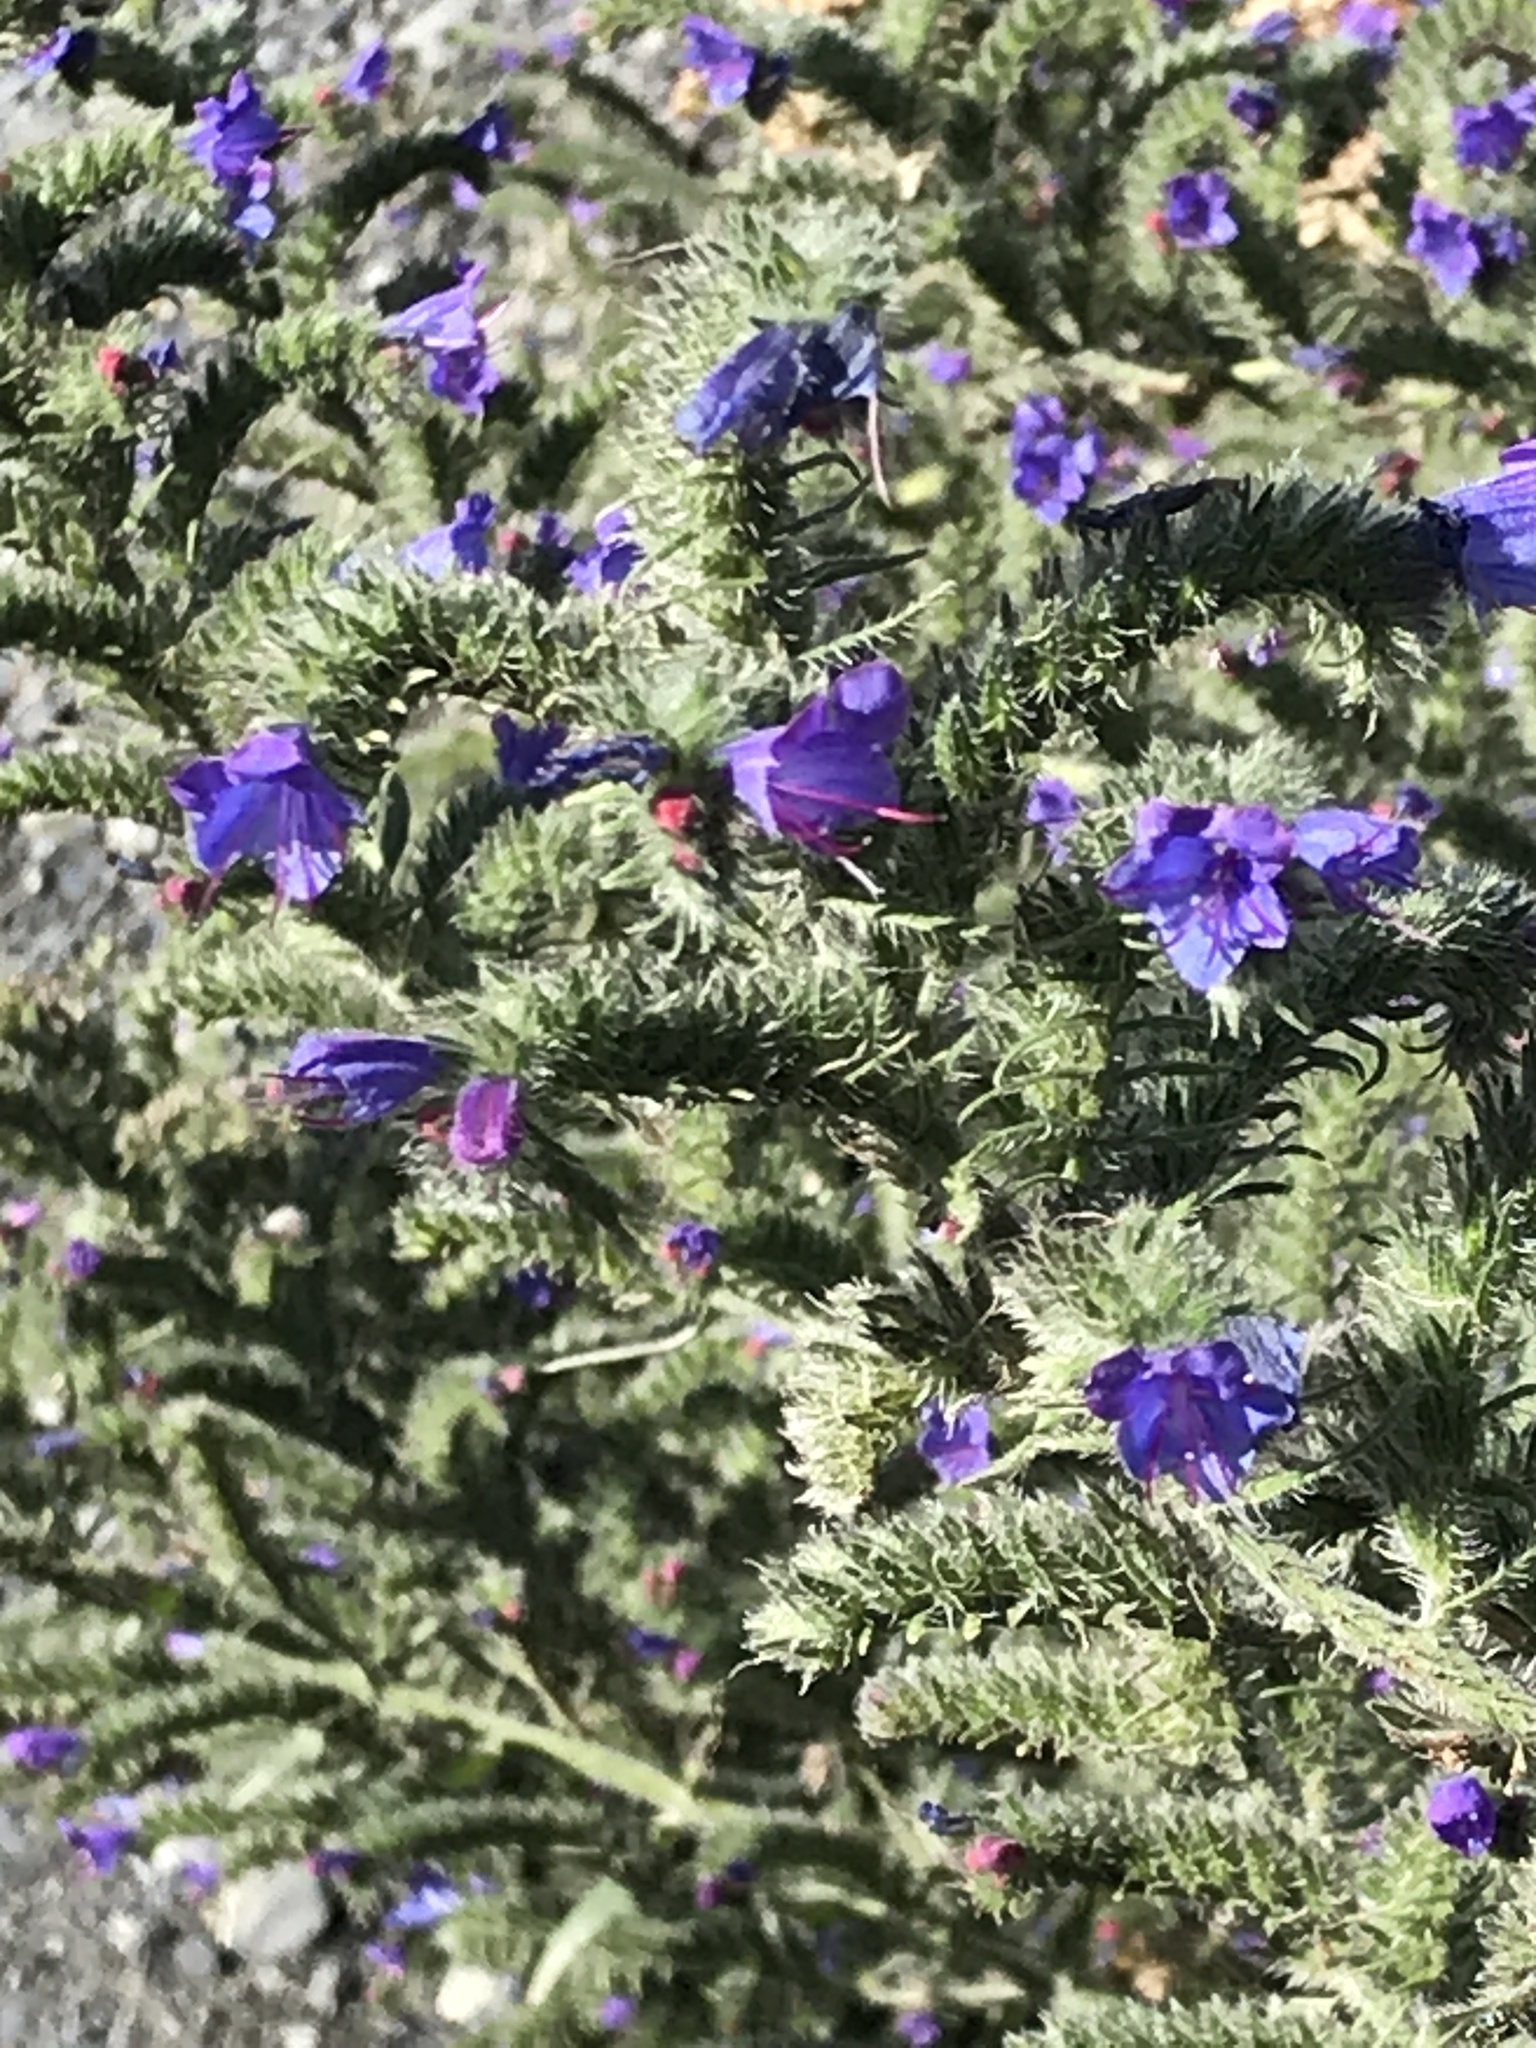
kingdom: Plantae
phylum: Tracheophyta
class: Magnoliopsida
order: Boraginales
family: Boraginaceae
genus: Echium
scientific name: Echium vulgare
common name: Common viper's bugloss
